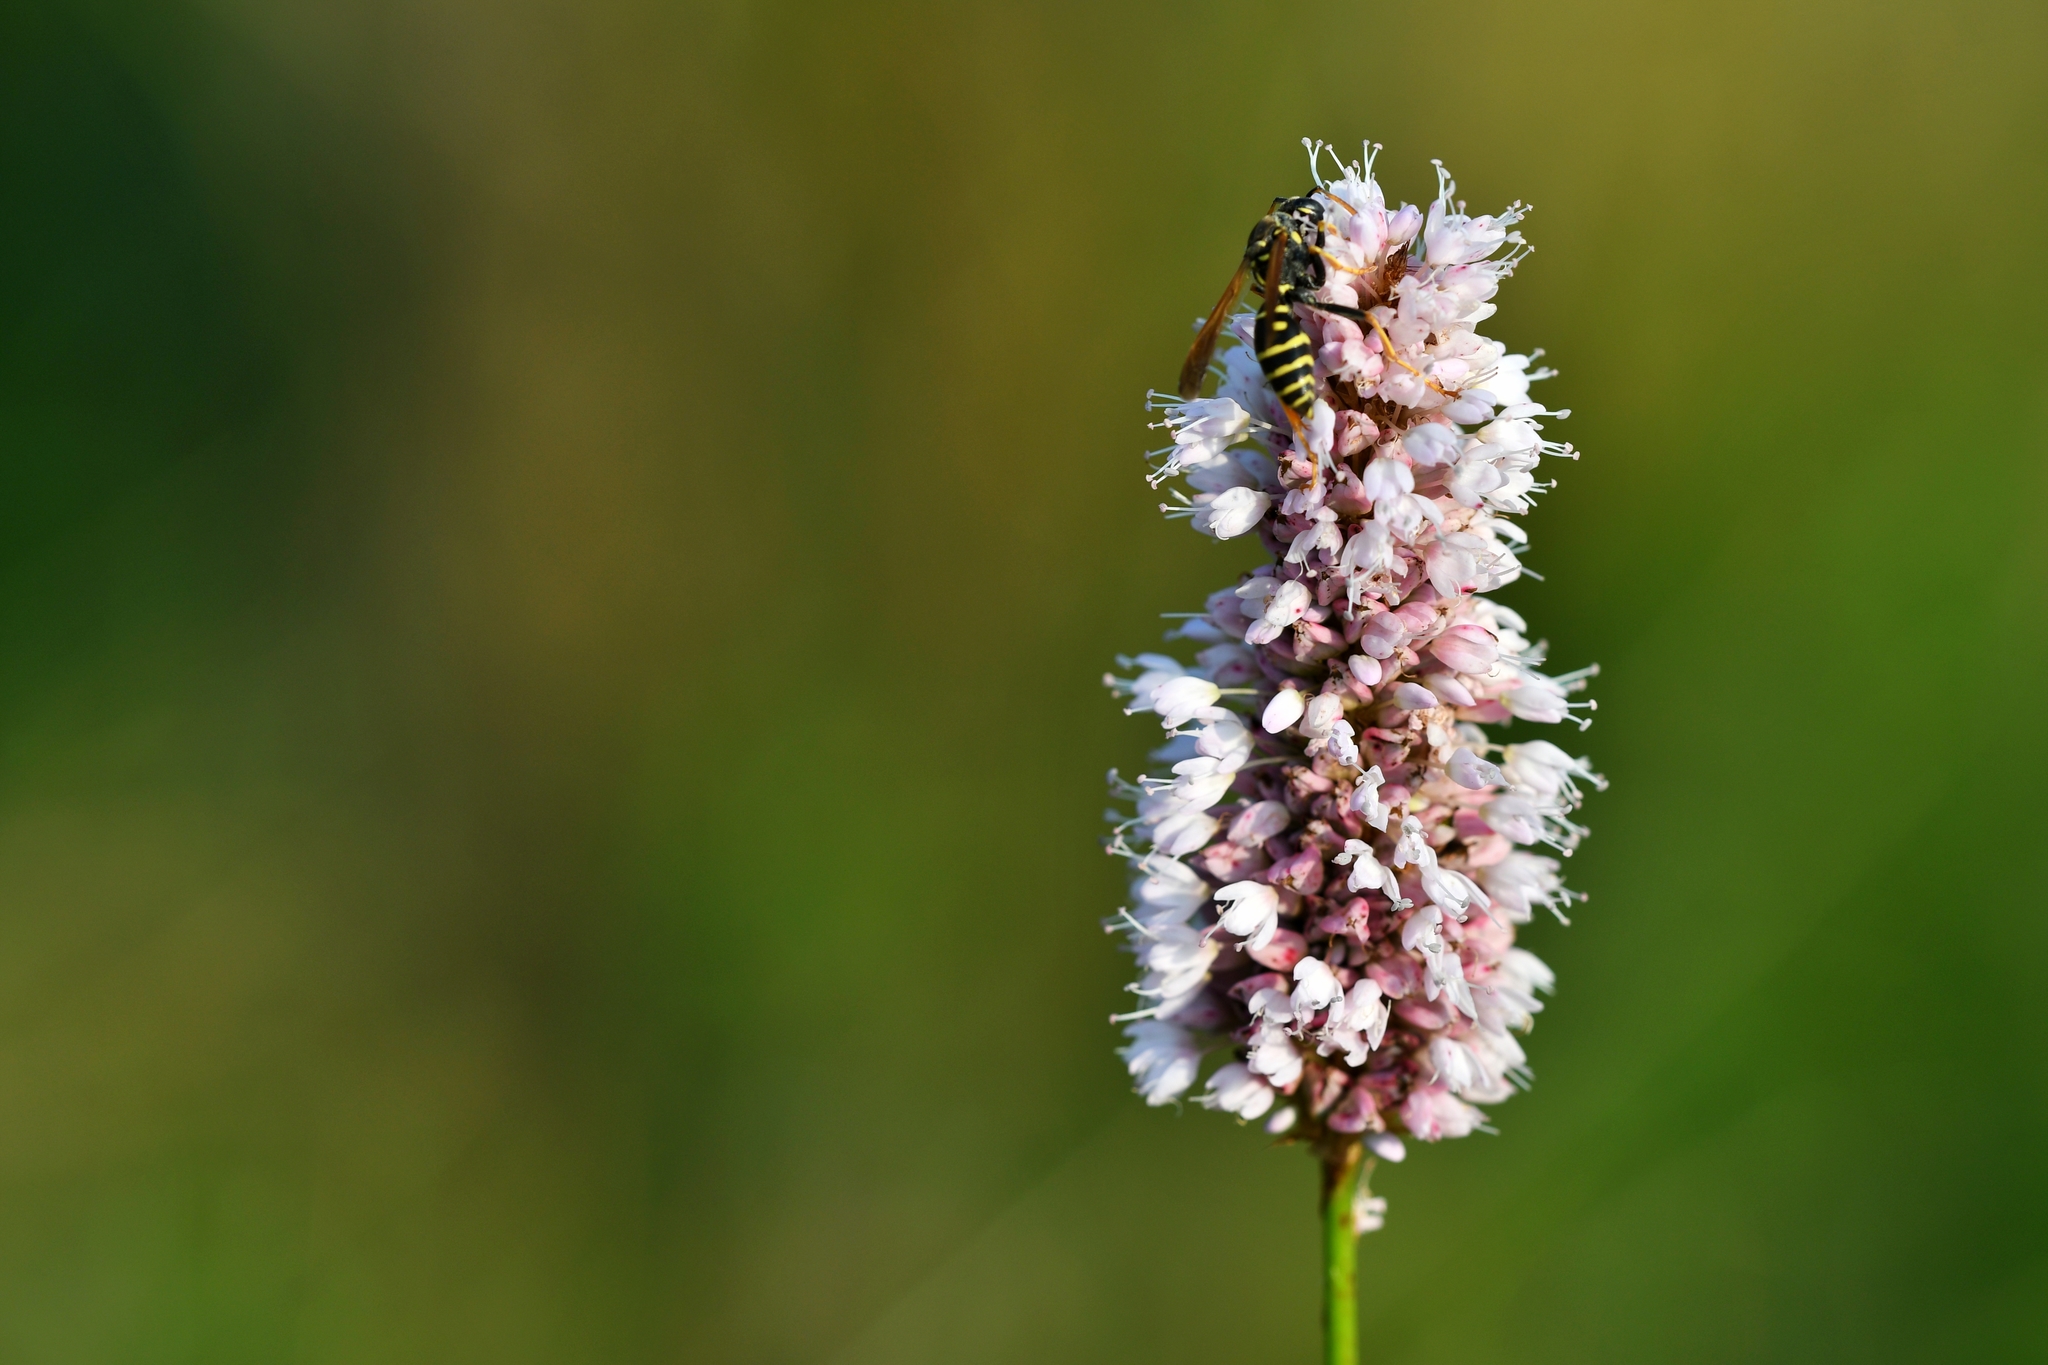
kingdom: Plantae
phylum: Tracheophyta
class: Magnoliopsida
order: Caryophyllales
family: Polygonaceae
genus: Bistorta
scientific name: Bistorta officinalis
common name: Common bistort
